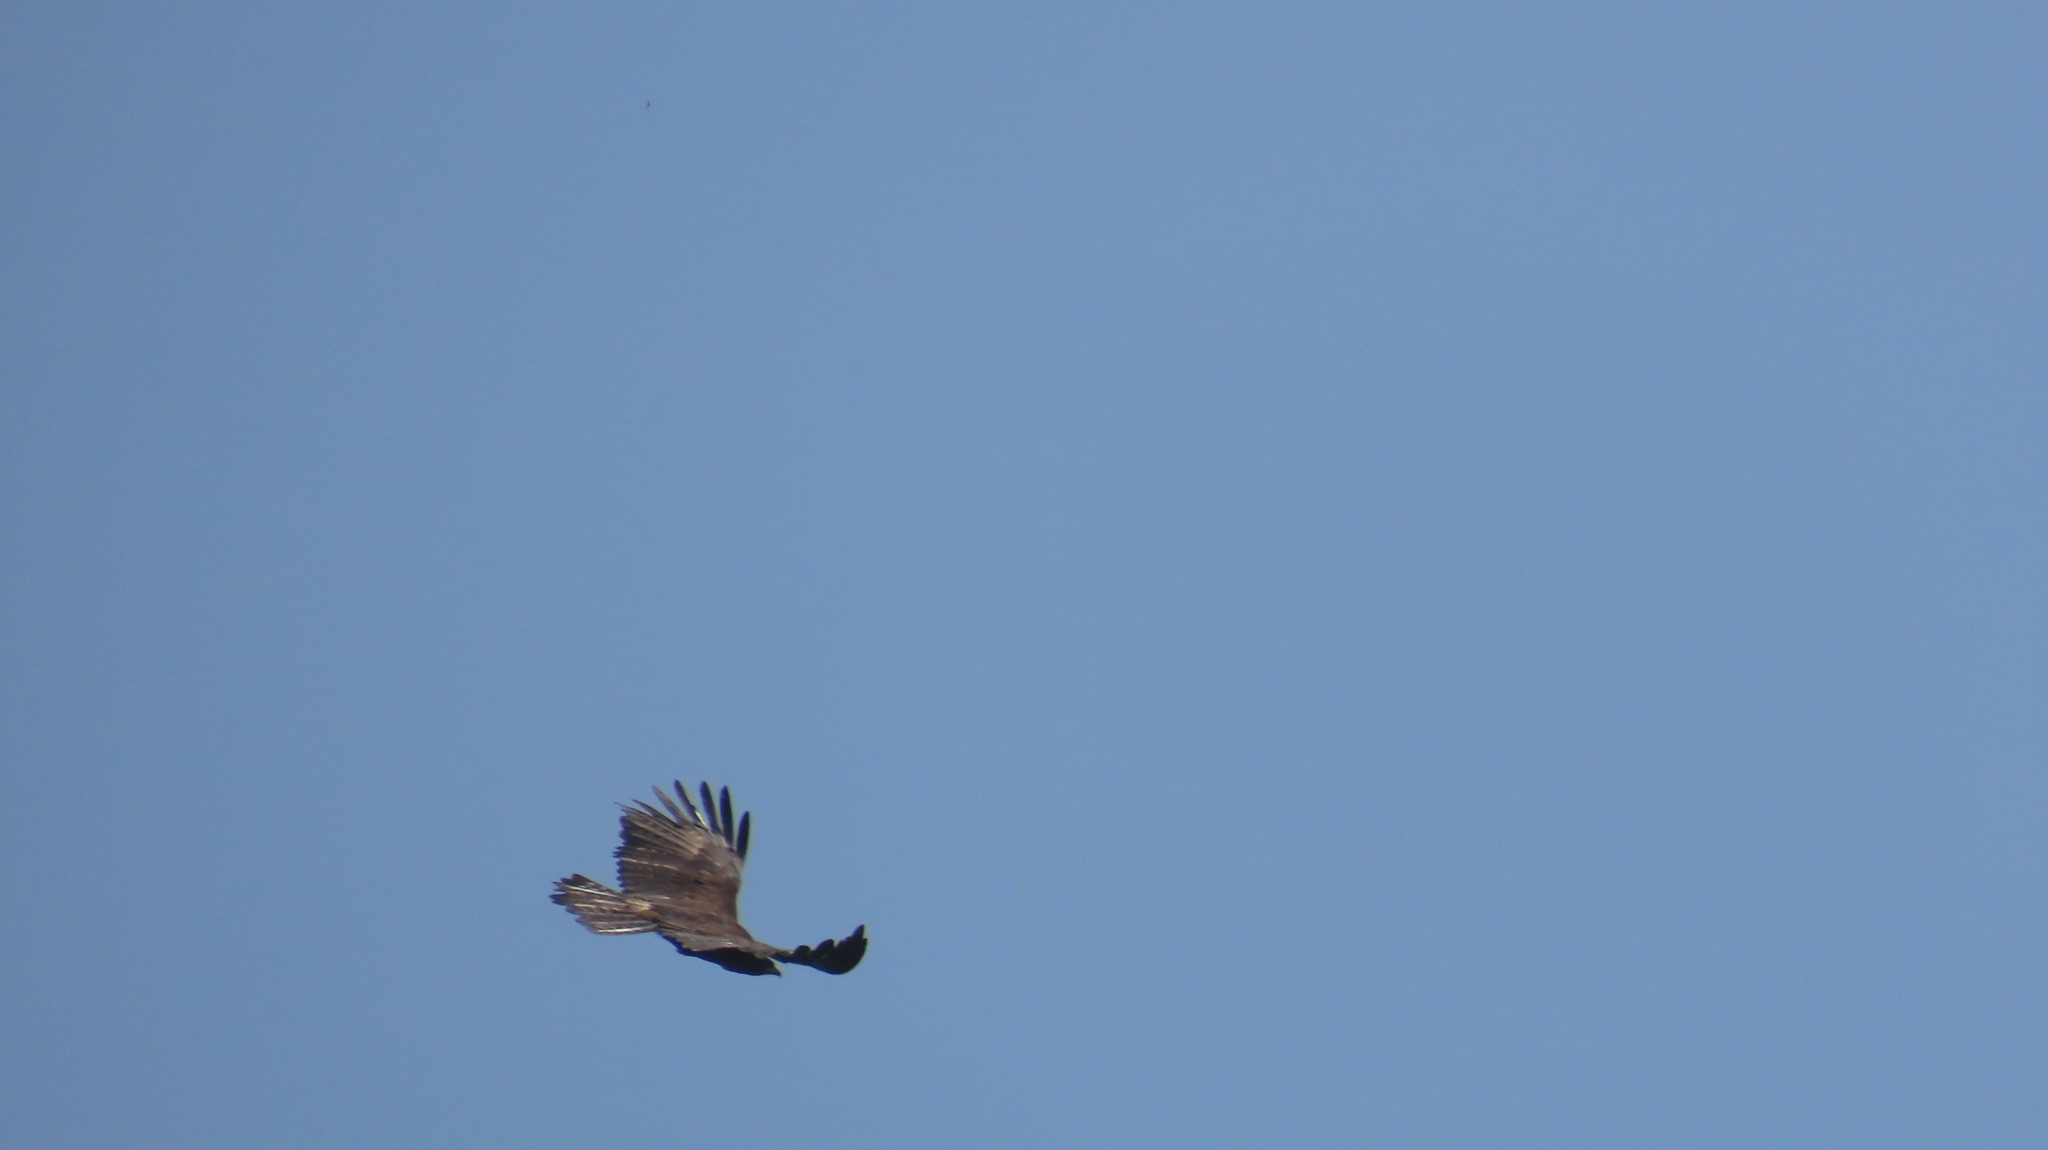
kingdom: Animalia
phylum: Chordata
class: Aves
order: Accipitriformes
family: Accipitridae
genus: Ictinaetus
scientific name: Ictinaetus malayensis
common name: Black eagle
